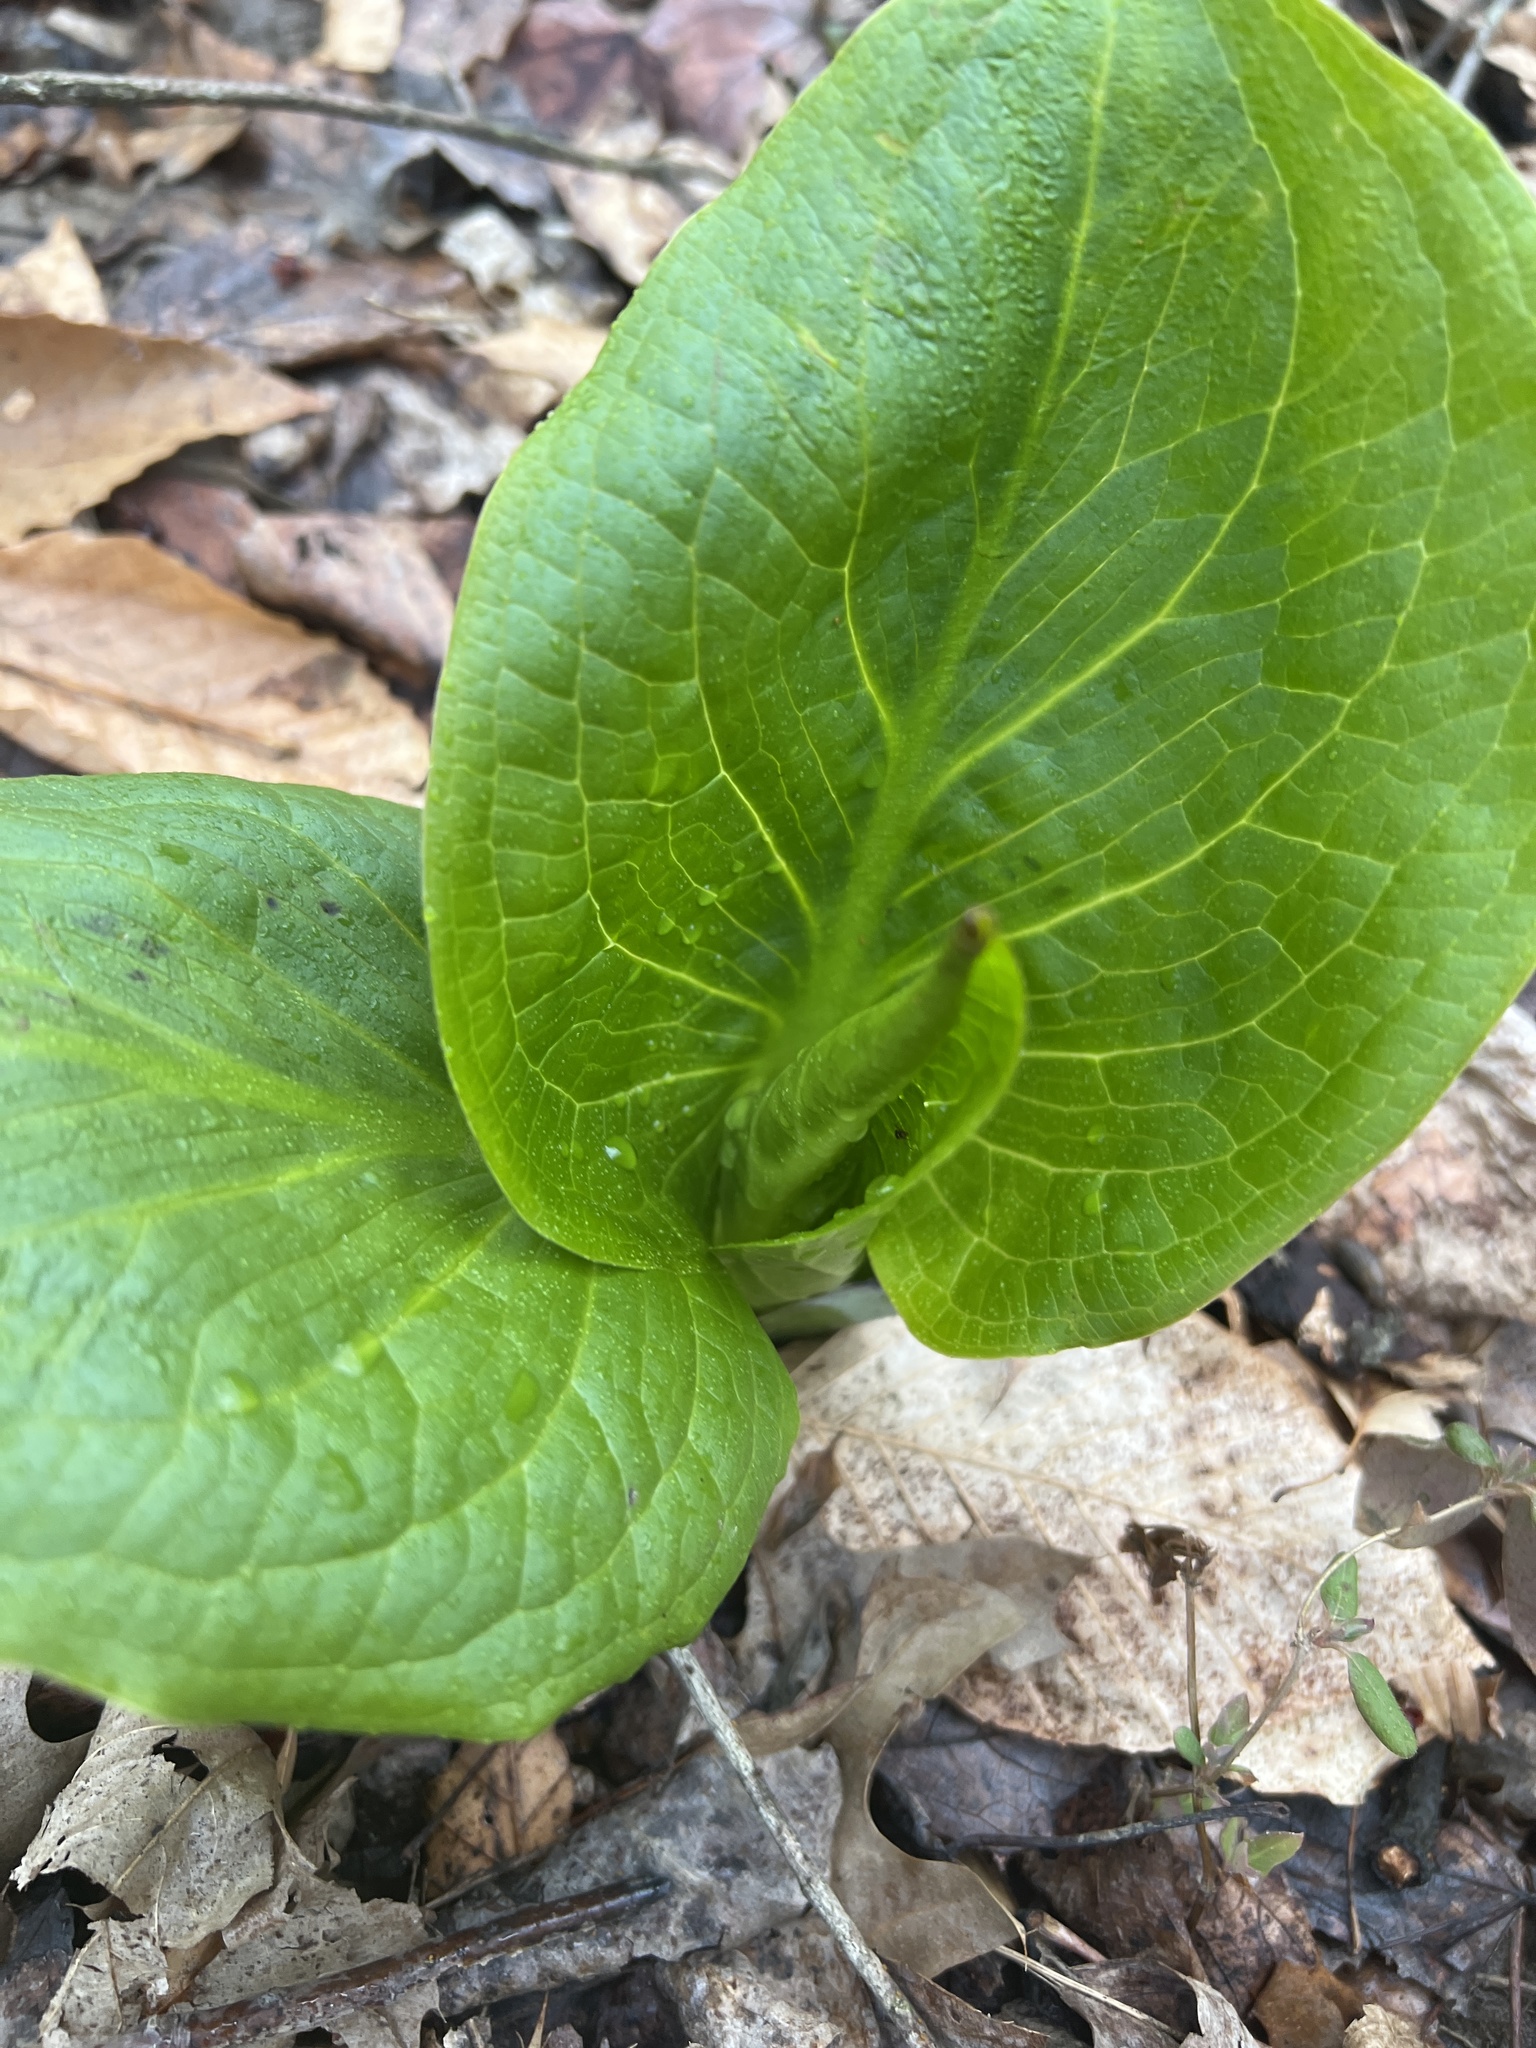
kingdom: Plantae
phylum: Tracheophyta
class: Liliopsida
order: Alismatales
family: Araceae
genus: Symplocarpus
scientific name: Symplocarpus foetidus
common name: Eastern skunk cabbage
